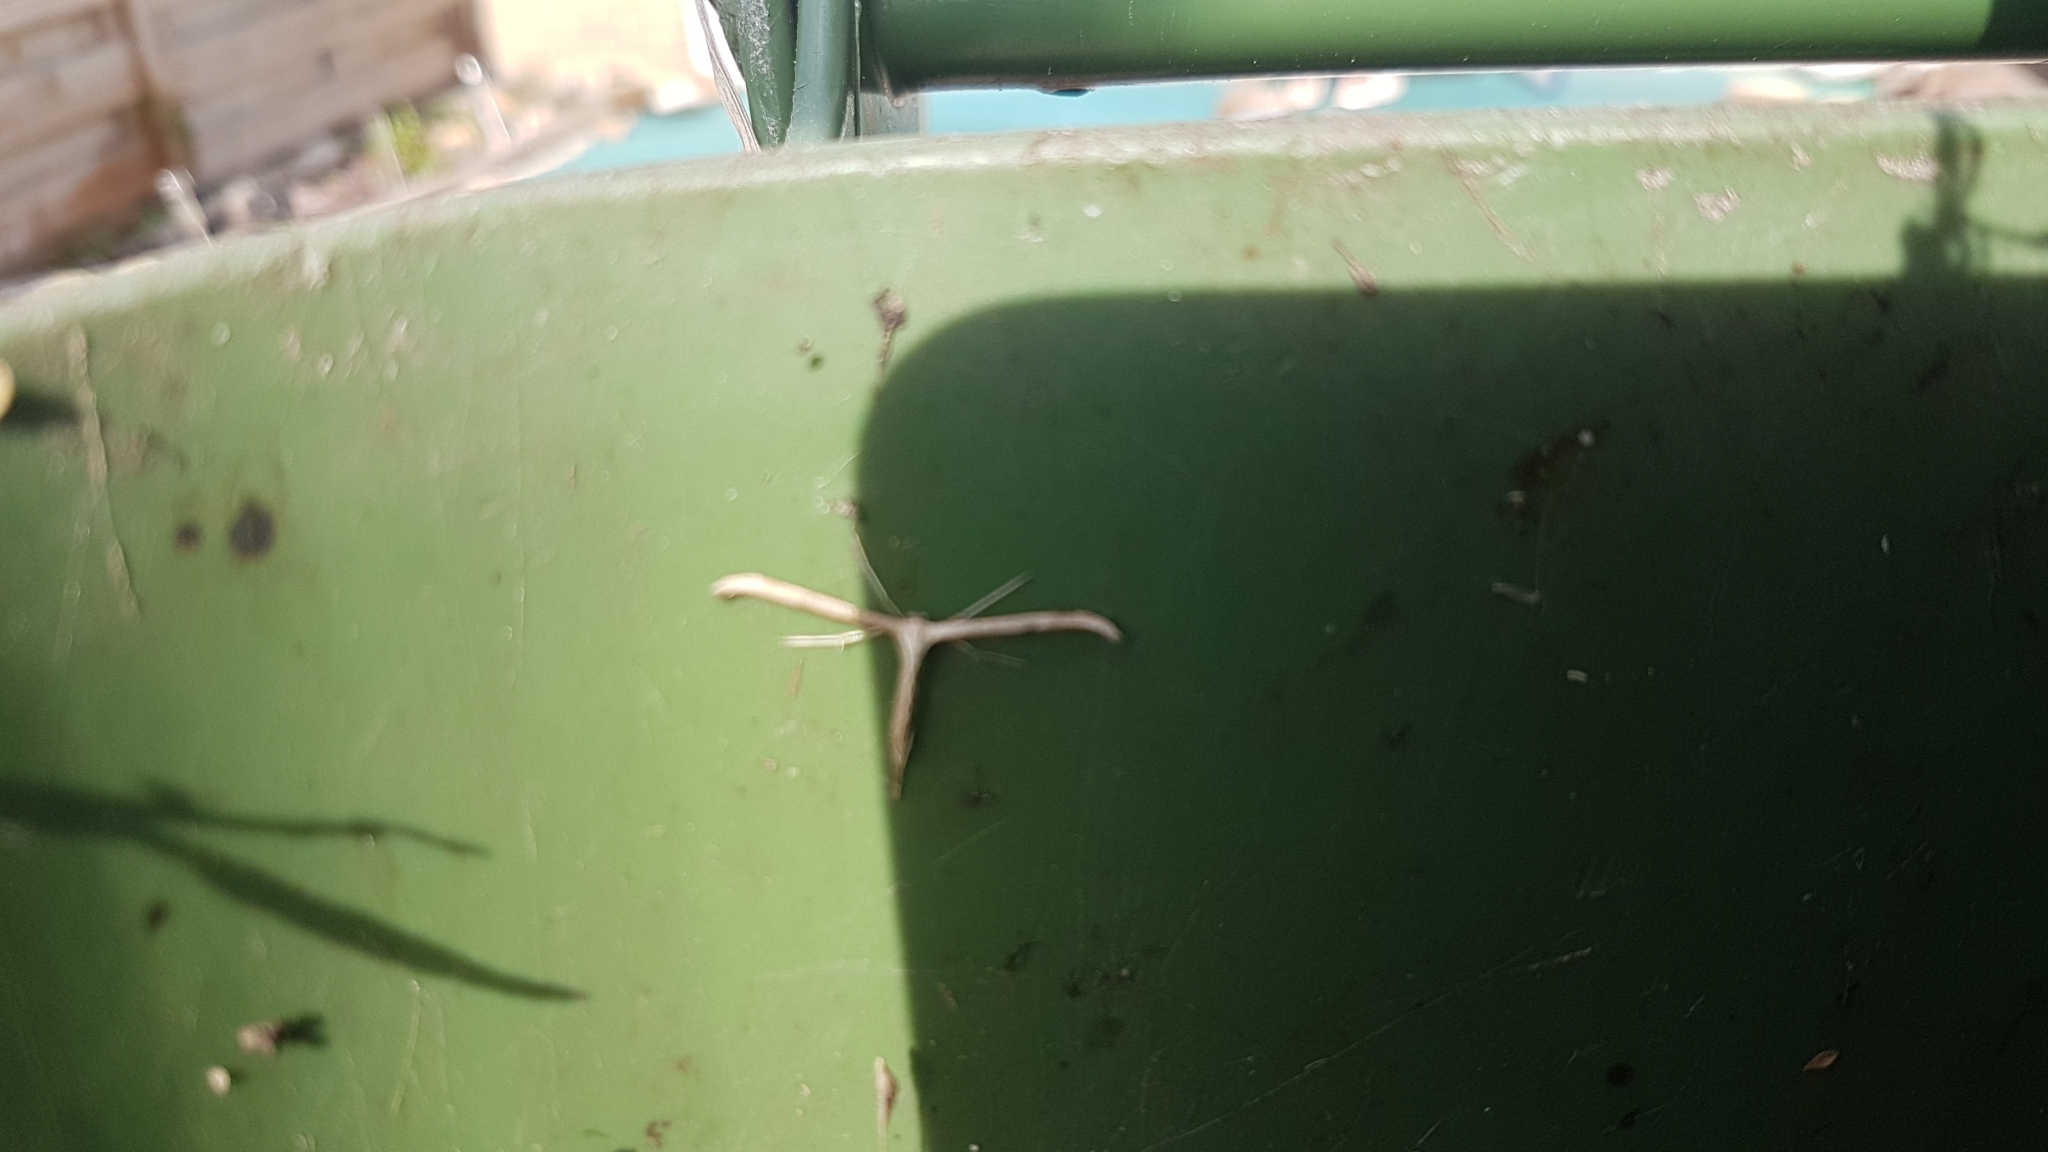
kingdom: Animalia
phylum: Arthropoda
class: Insecta
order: Lepidoptera
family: Pterophoridae
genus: Emmelina
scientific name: Emmelina monodactyla
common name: Common plume
